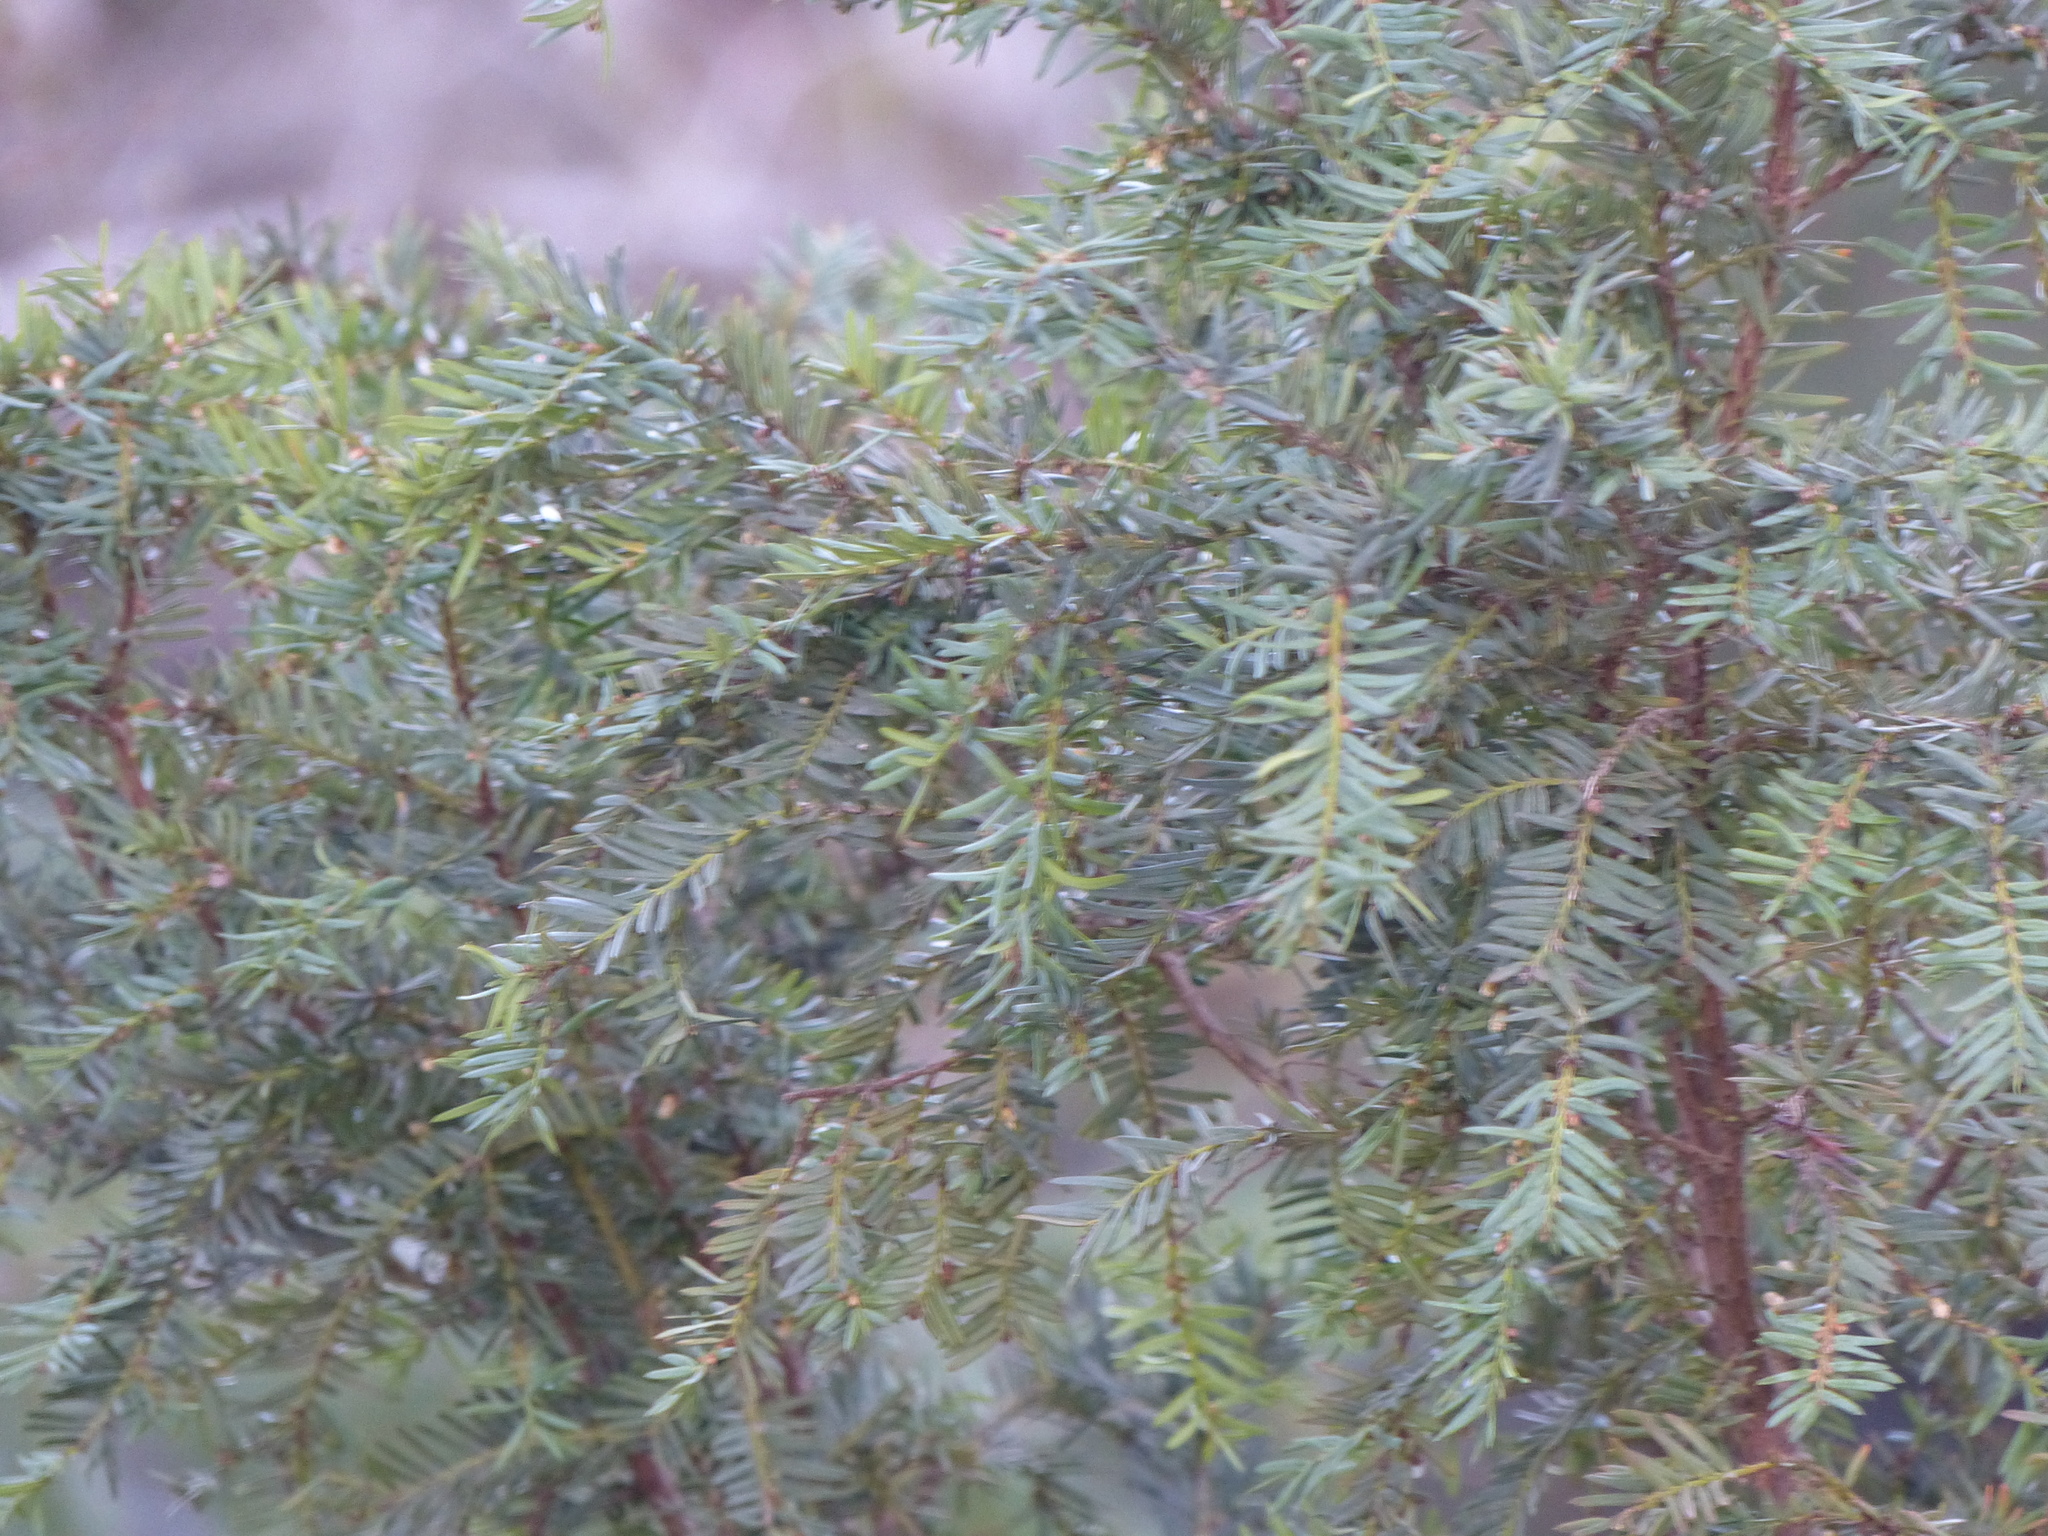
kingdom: Plantae
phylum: Tracheophyta
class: Pinopsida
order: Pinales
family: Taxaceae
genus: Taxus
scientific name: Taxus brevifolia
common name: Pacific yew
